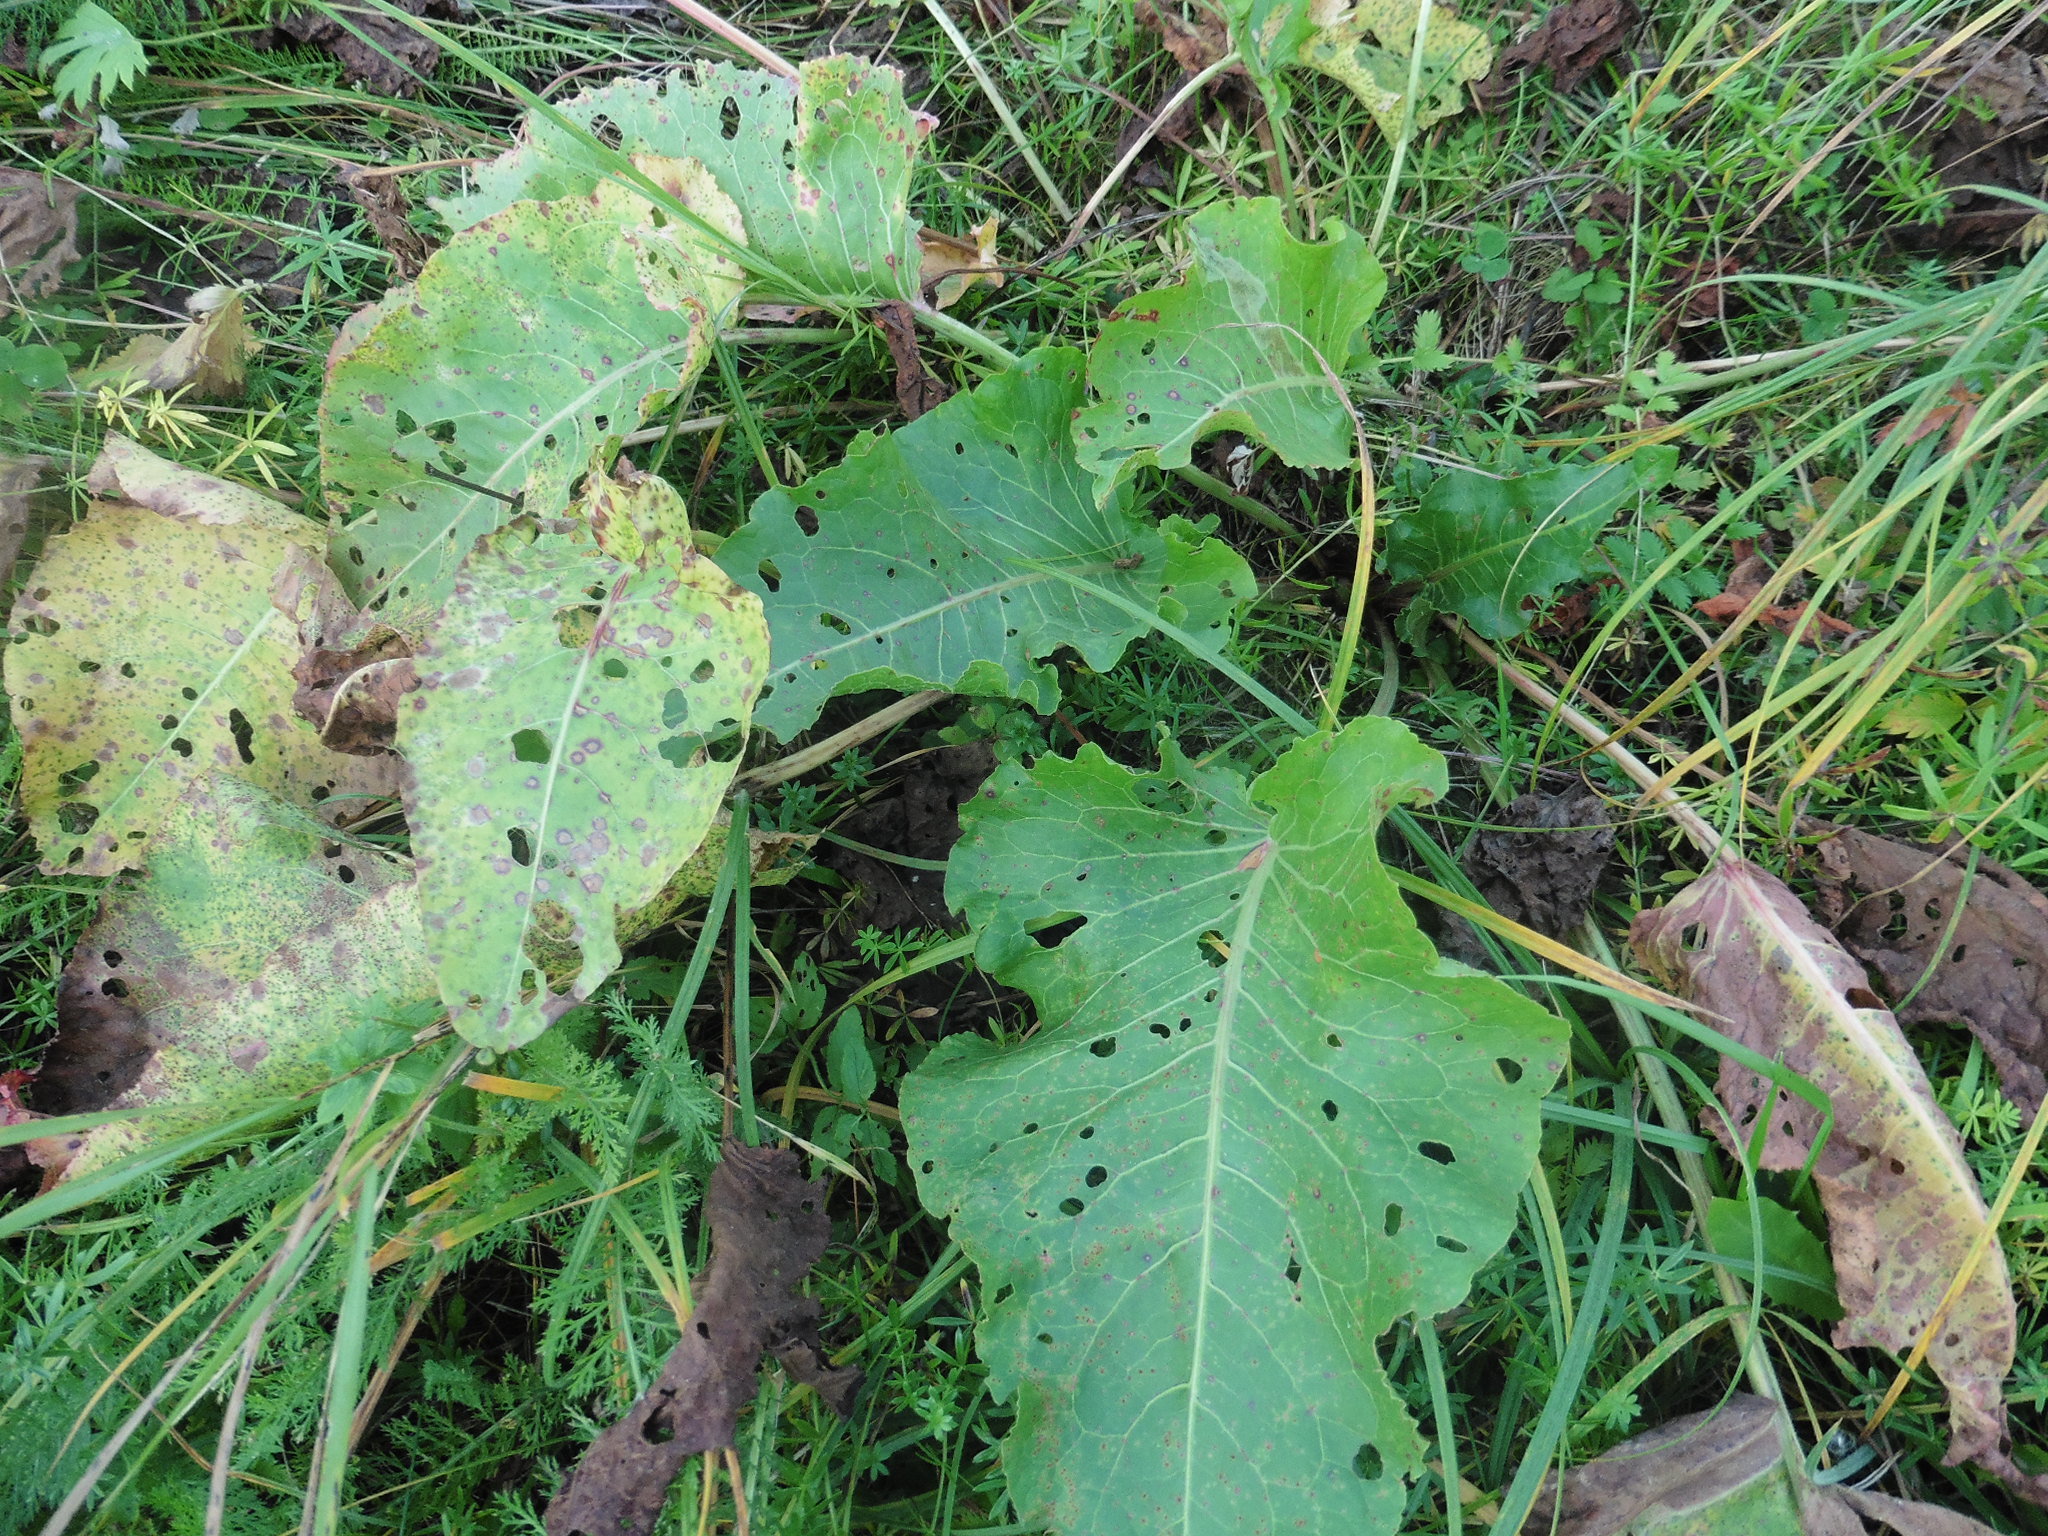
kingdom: Plantae
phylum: Tracheophyta
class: Magnoliopsida
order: Caryophyllales
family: Polygonaceae
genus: Rumex
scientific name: Rumex confertus
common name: Russian dock
